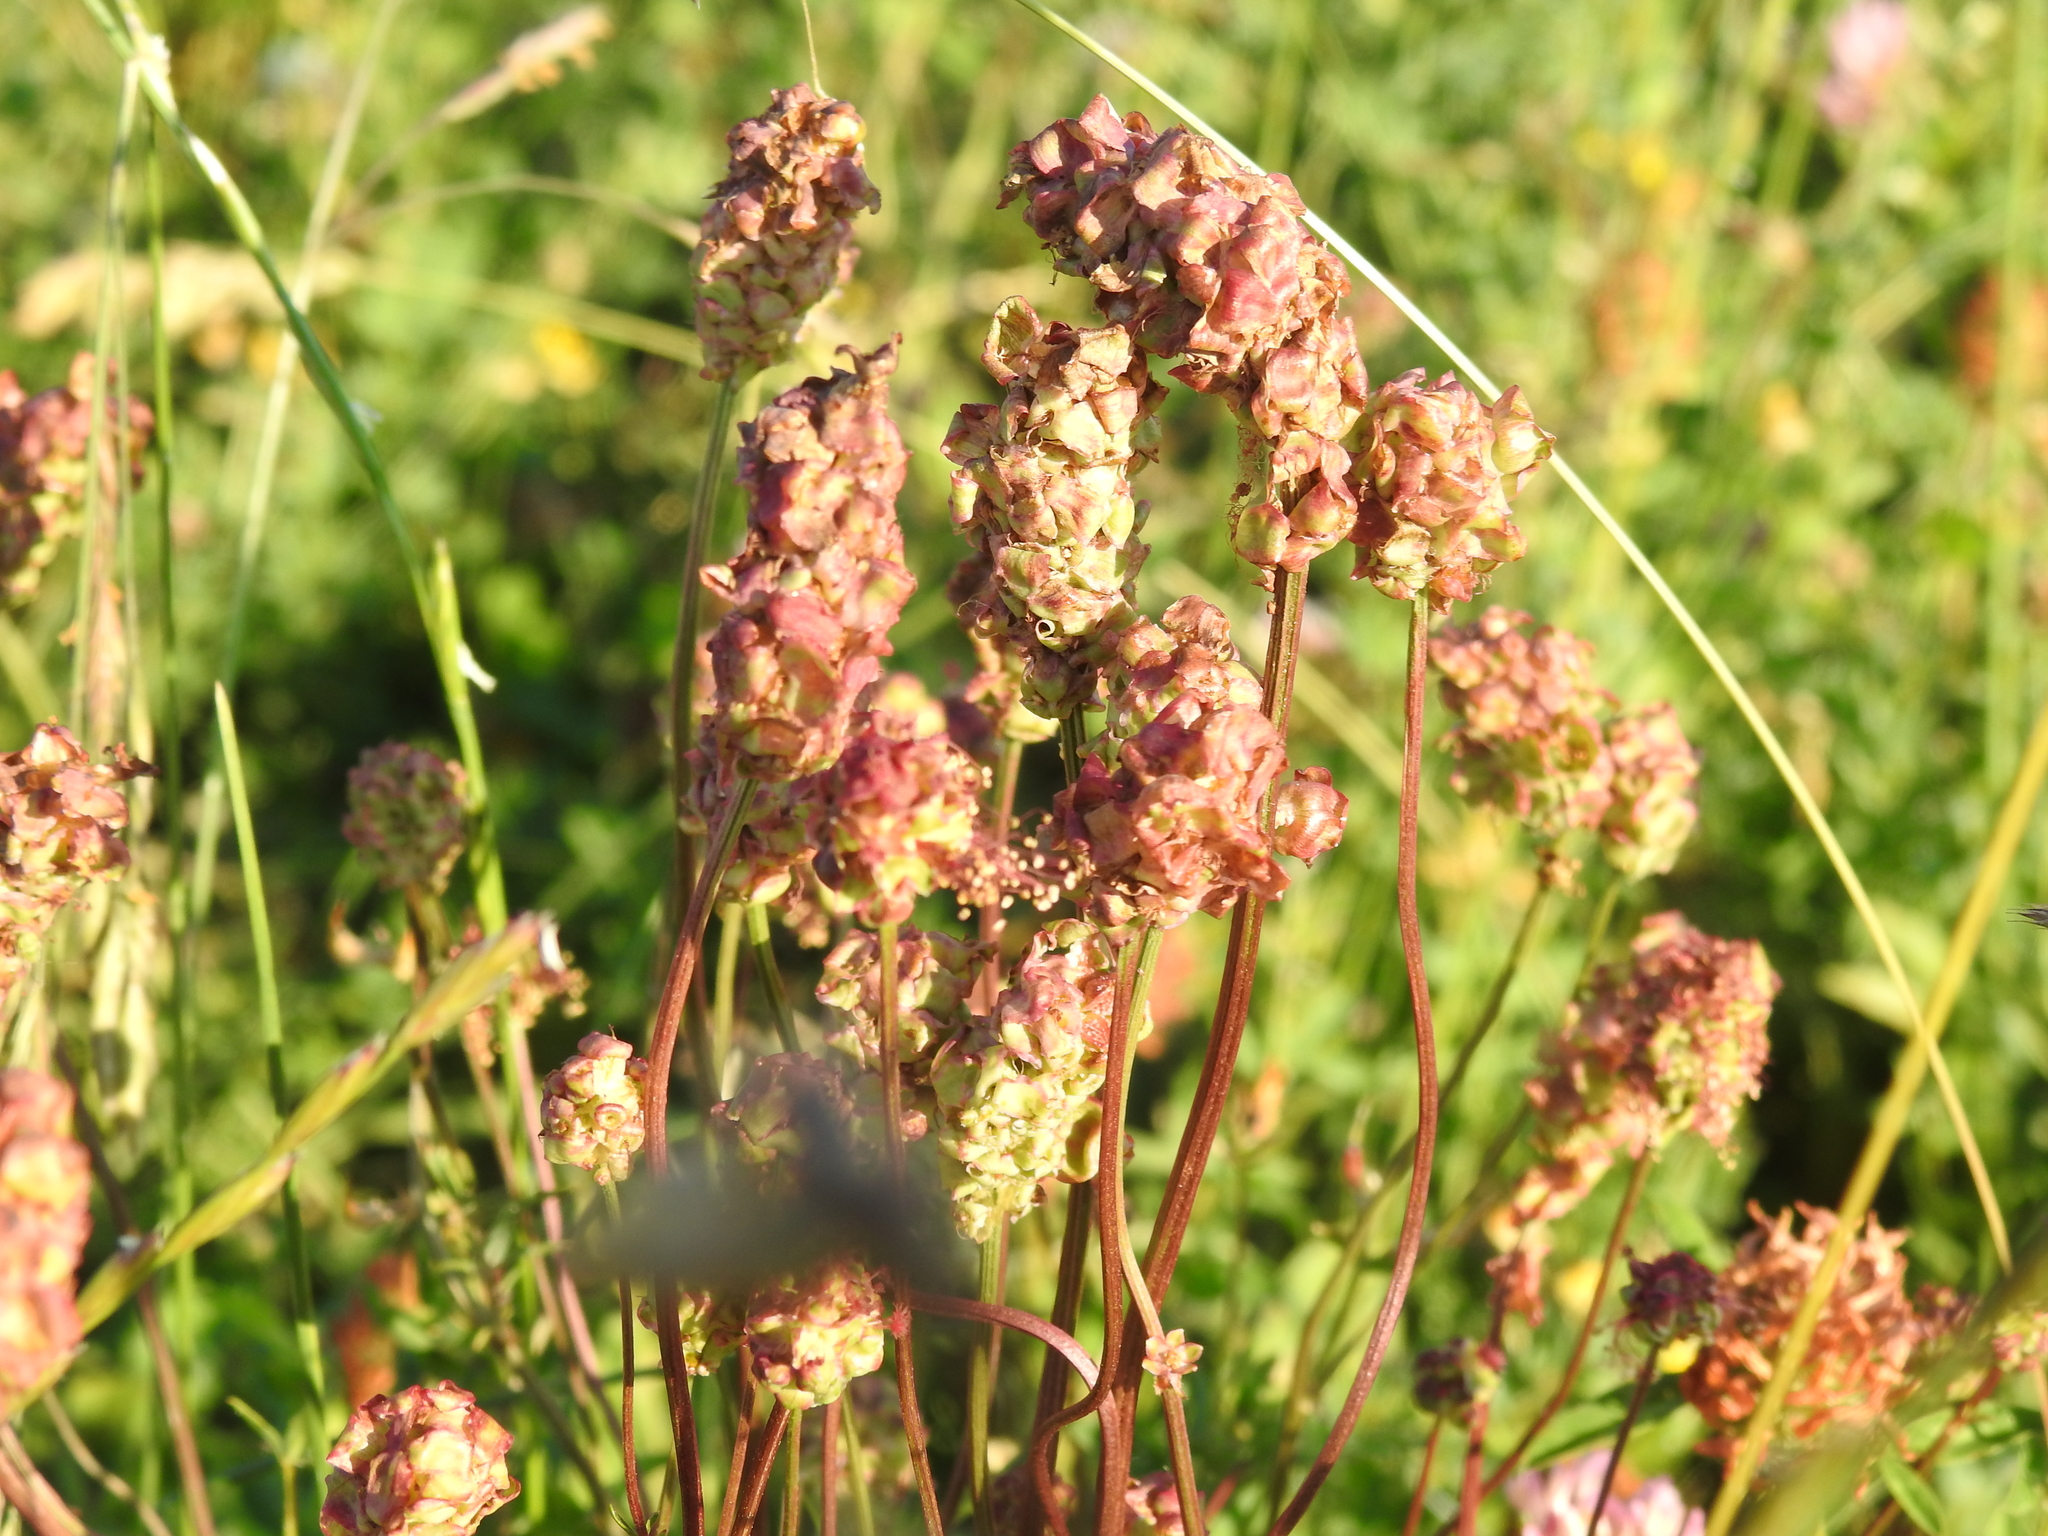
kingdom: Plantae
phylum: Tracheophyta
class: Magnoliopsida
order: Rosales
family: Rosaceae
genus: Poterium
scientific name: Poterium sanguisorba
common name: Salad burnet
